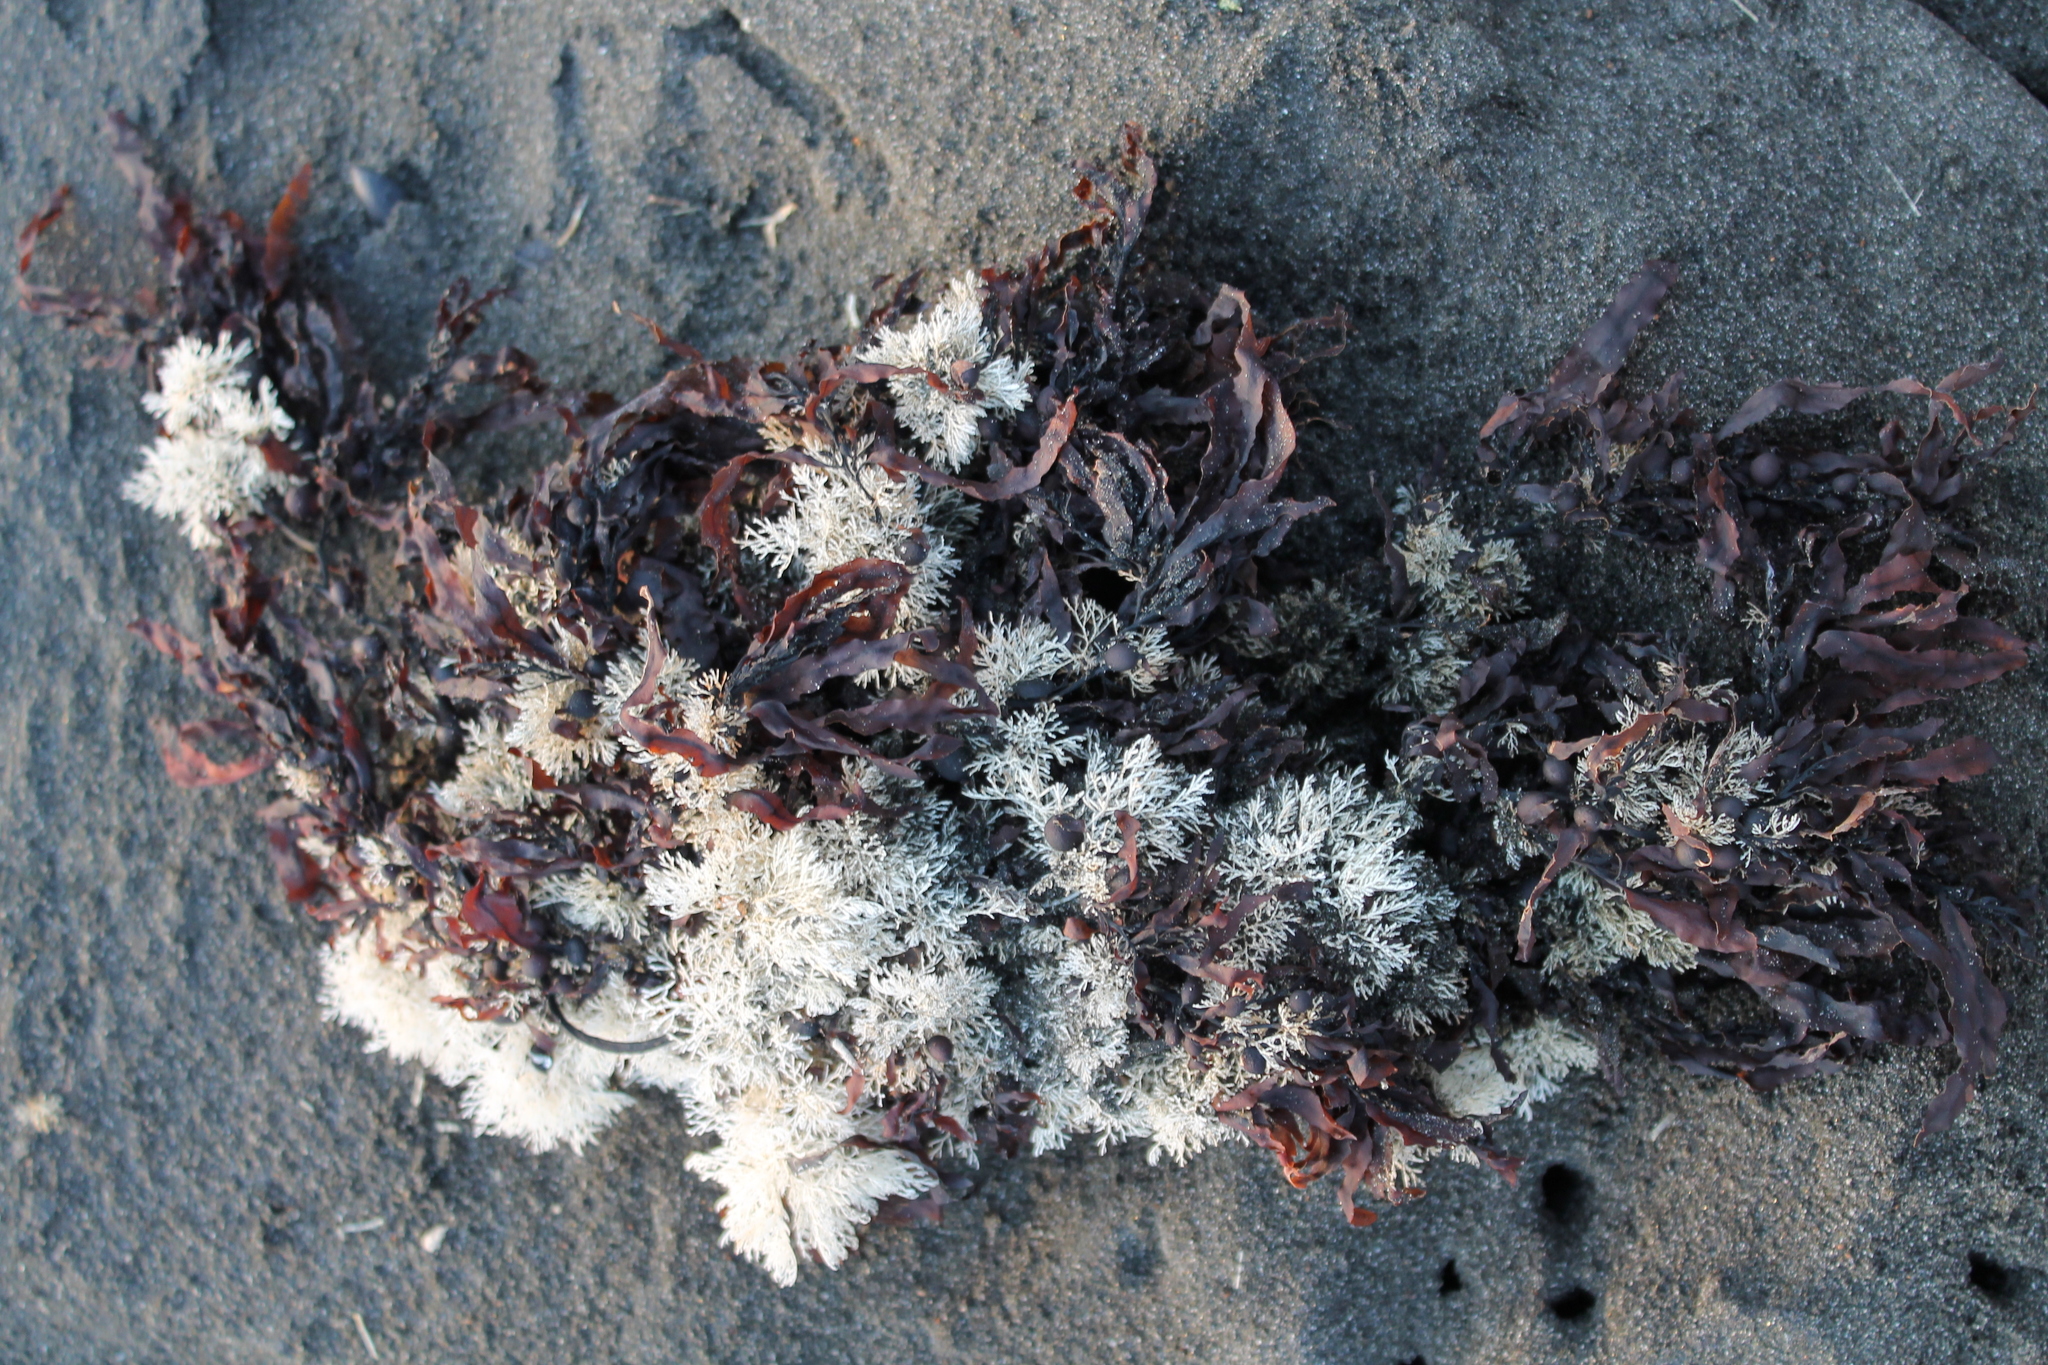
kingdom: Plantae
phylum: Rhodophyta
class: Florideophyceae
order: Corallinales
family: Corallinaceae
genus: Corallina
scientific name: Corallina officinalis
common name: Coral weed
